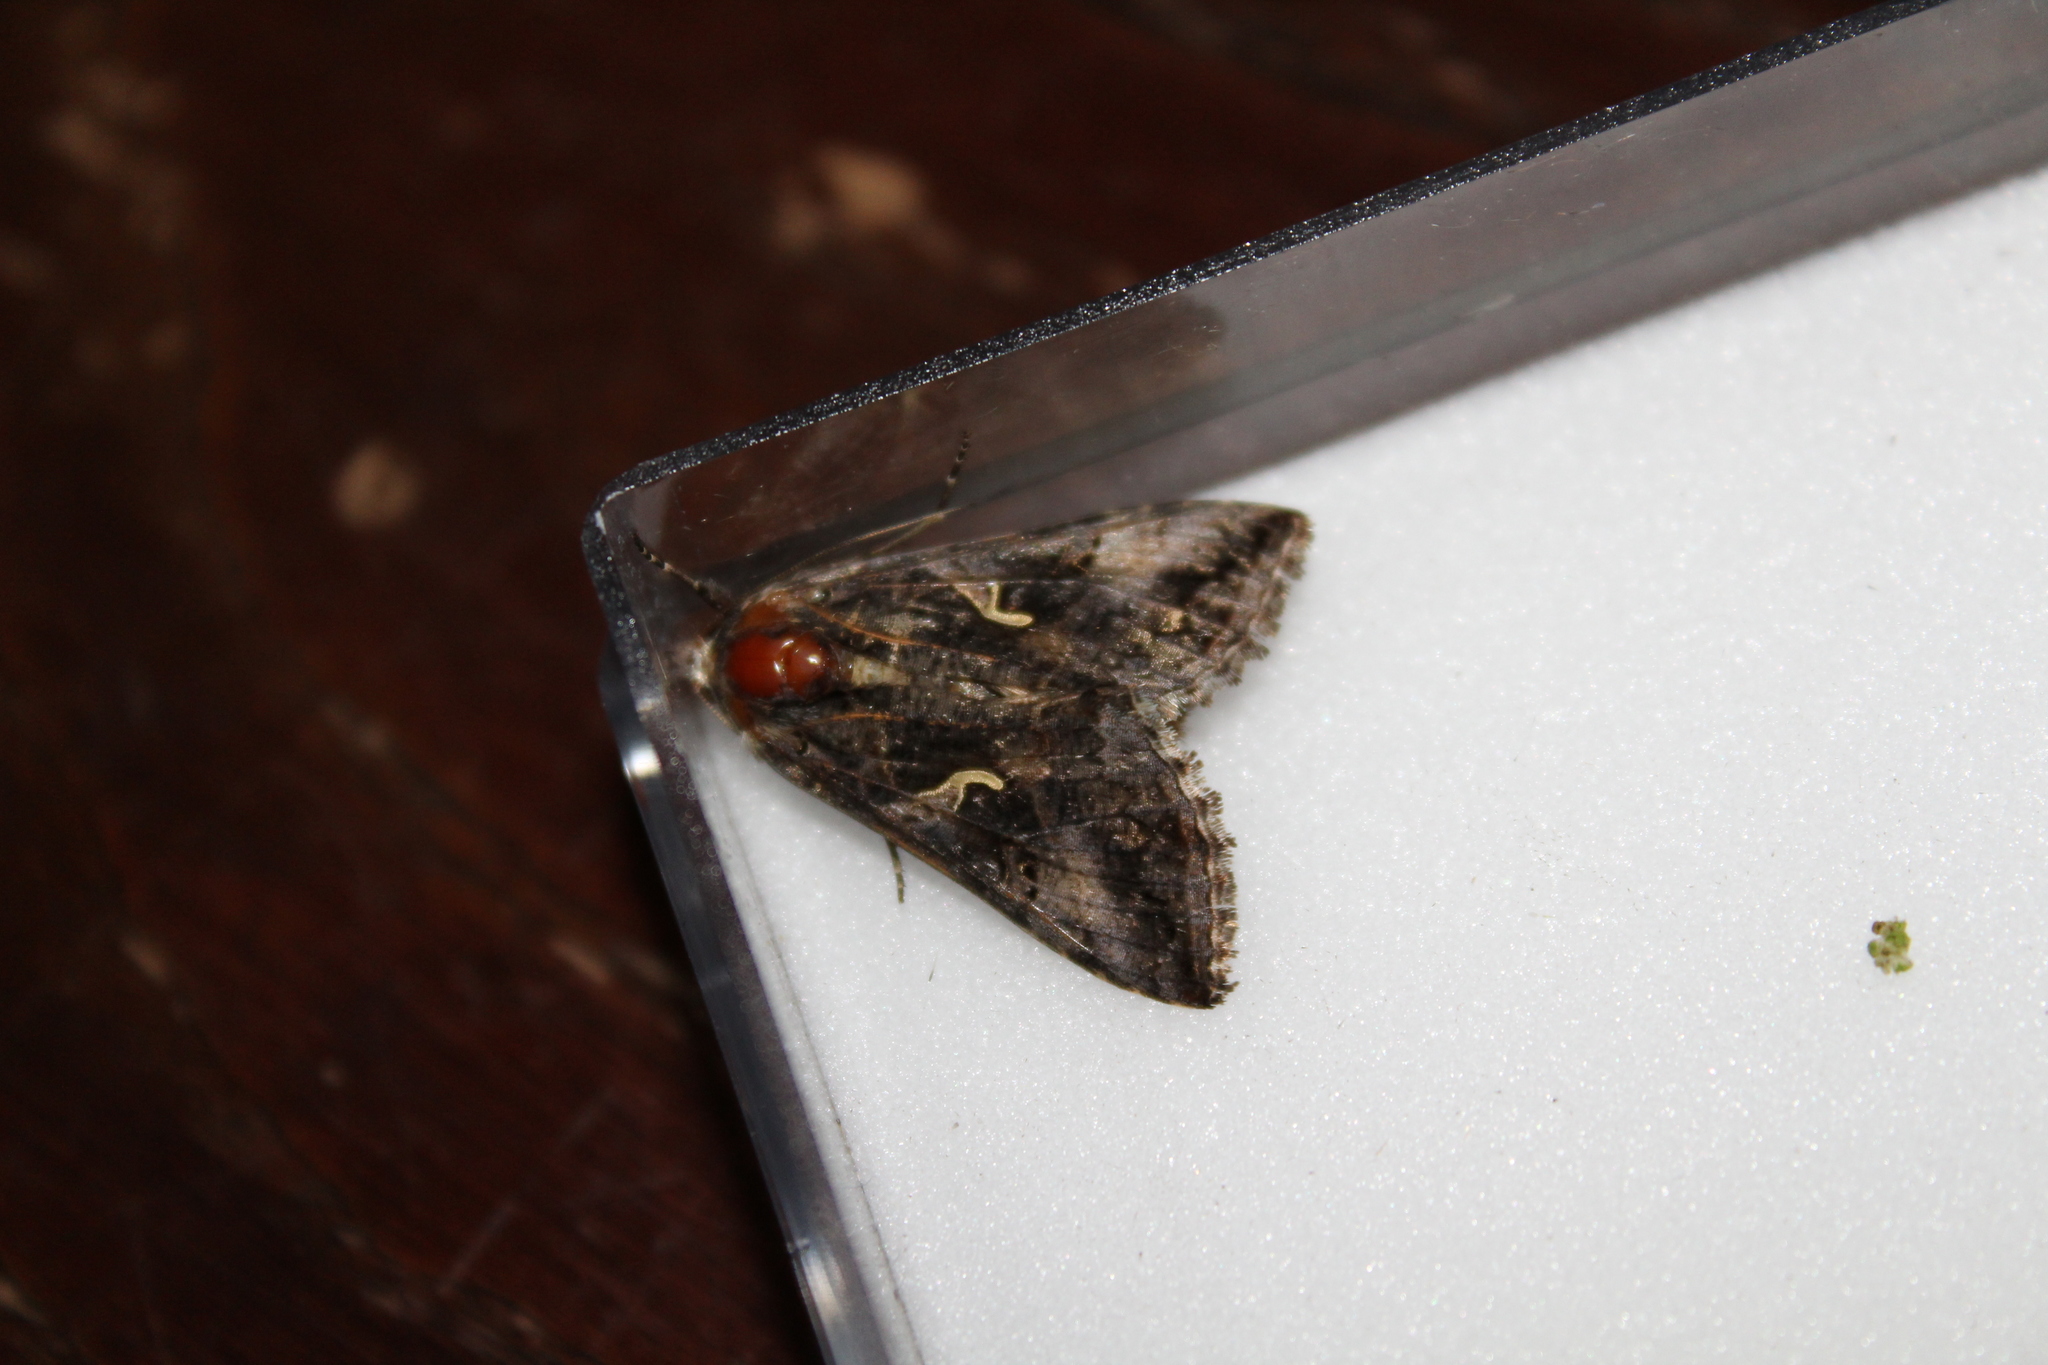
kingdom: Animalia
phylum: Arthropoda
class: Insecta
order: Lepidoptera
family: Noctuidae
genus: Autographa
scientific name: Autographa gamma
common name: Silver y
